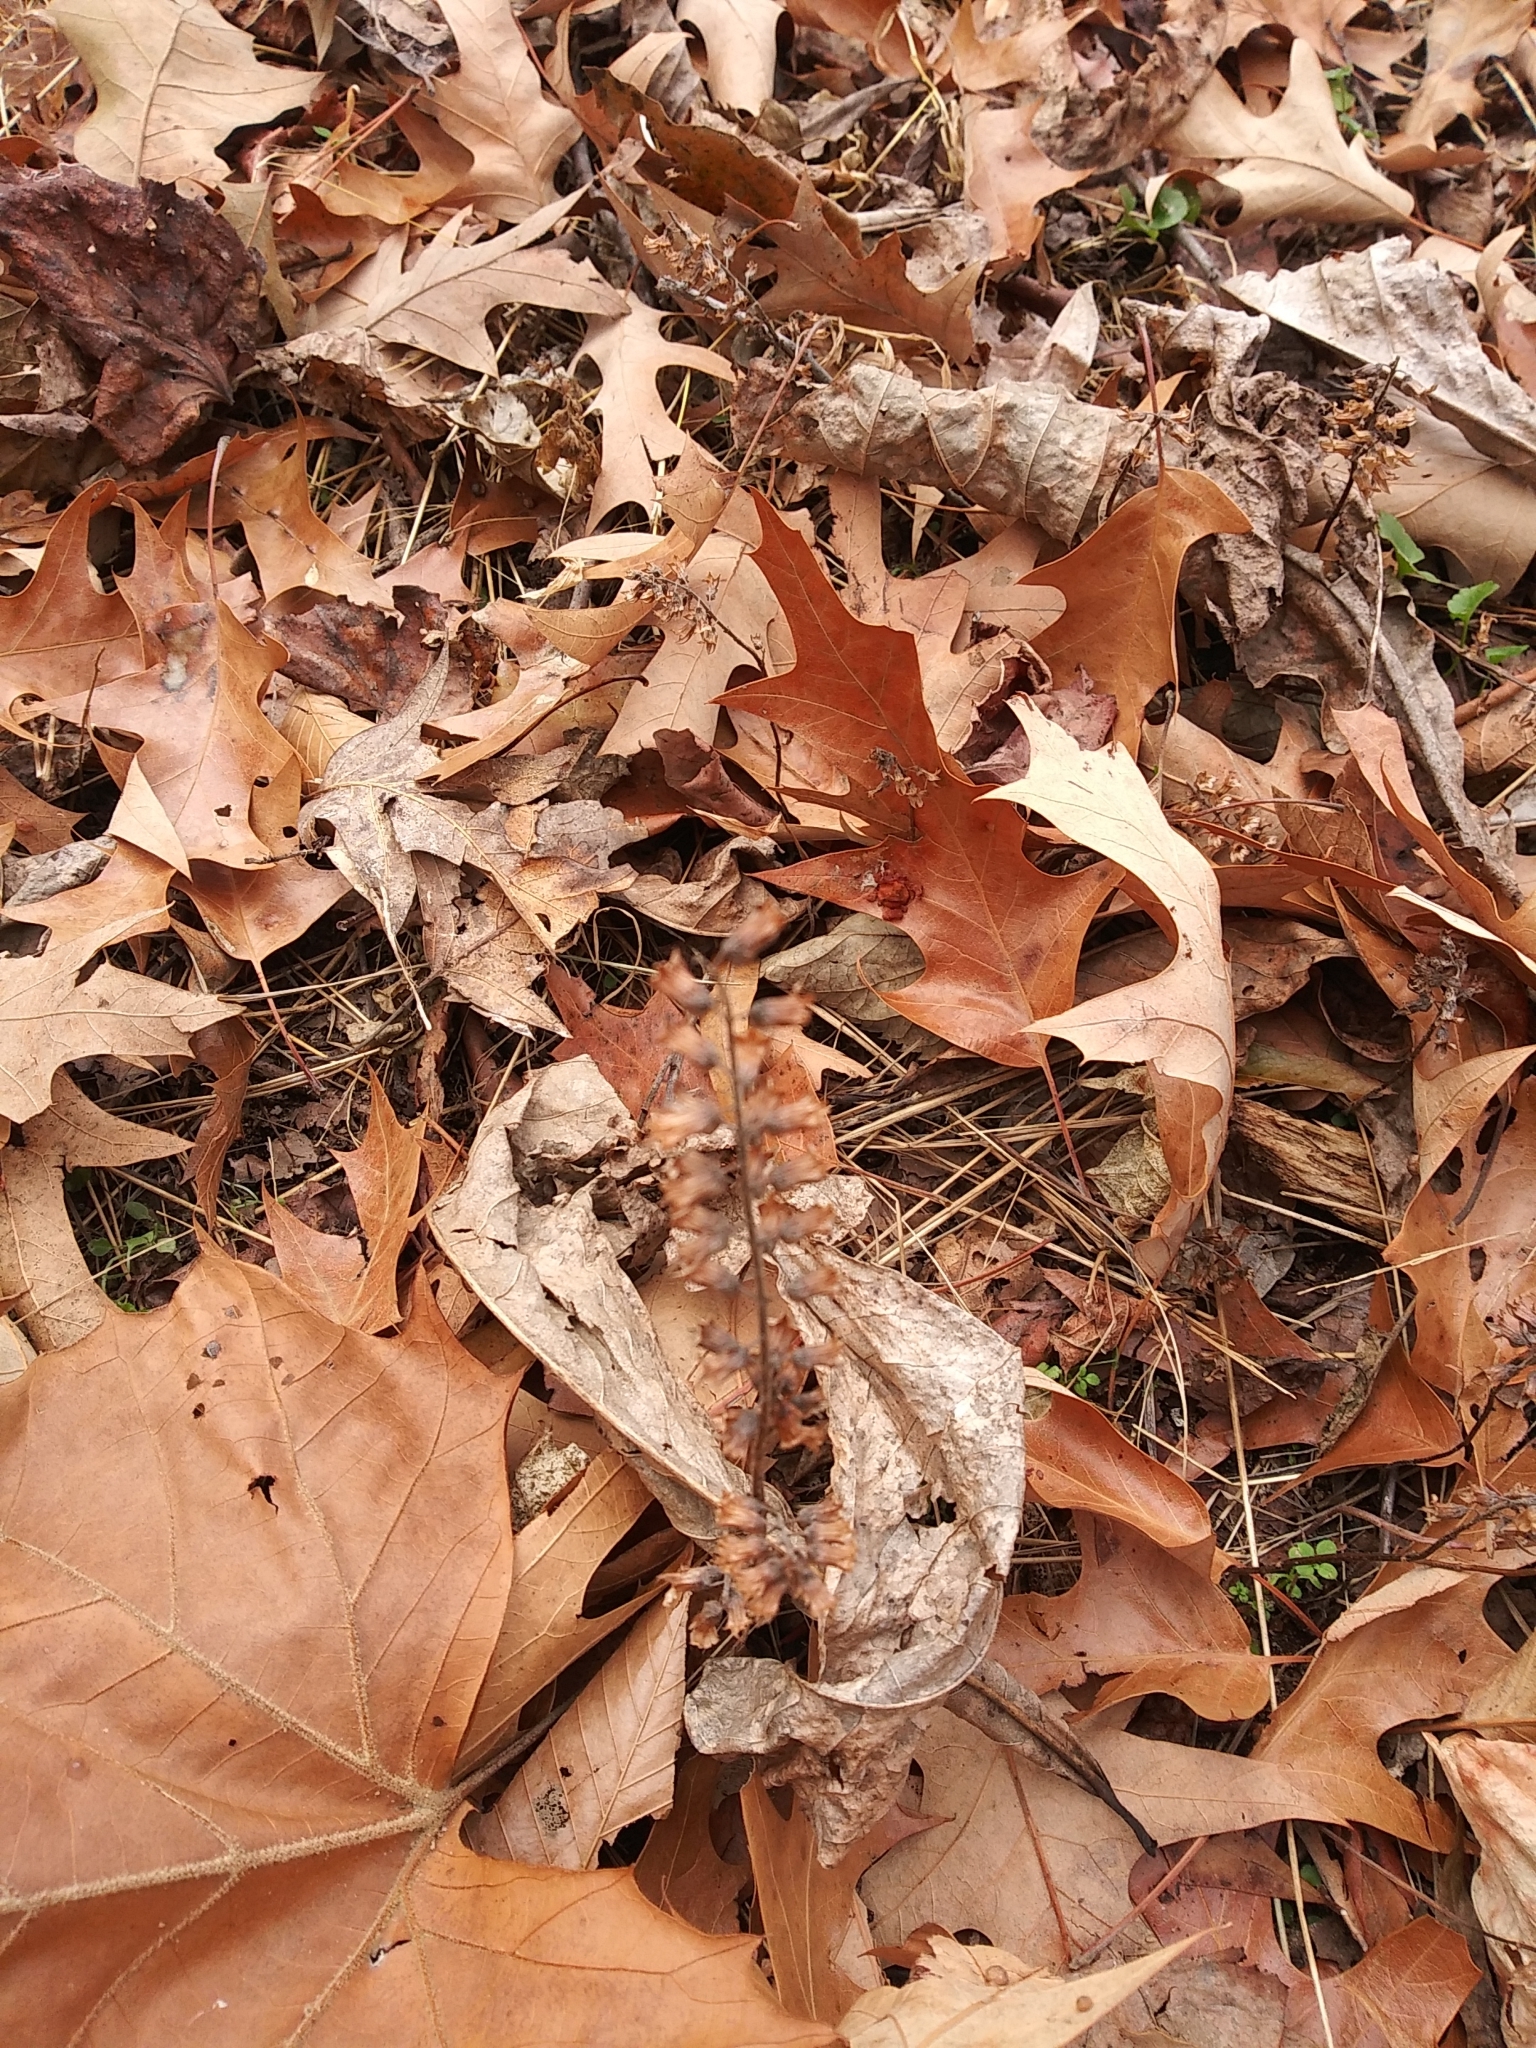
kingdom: Plantae
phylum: Tracheophyta
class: Magnoliopsida
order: Lamiales
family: Lamiaceae
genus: Perilla
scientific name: Perilla frutescens
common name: Perilla
